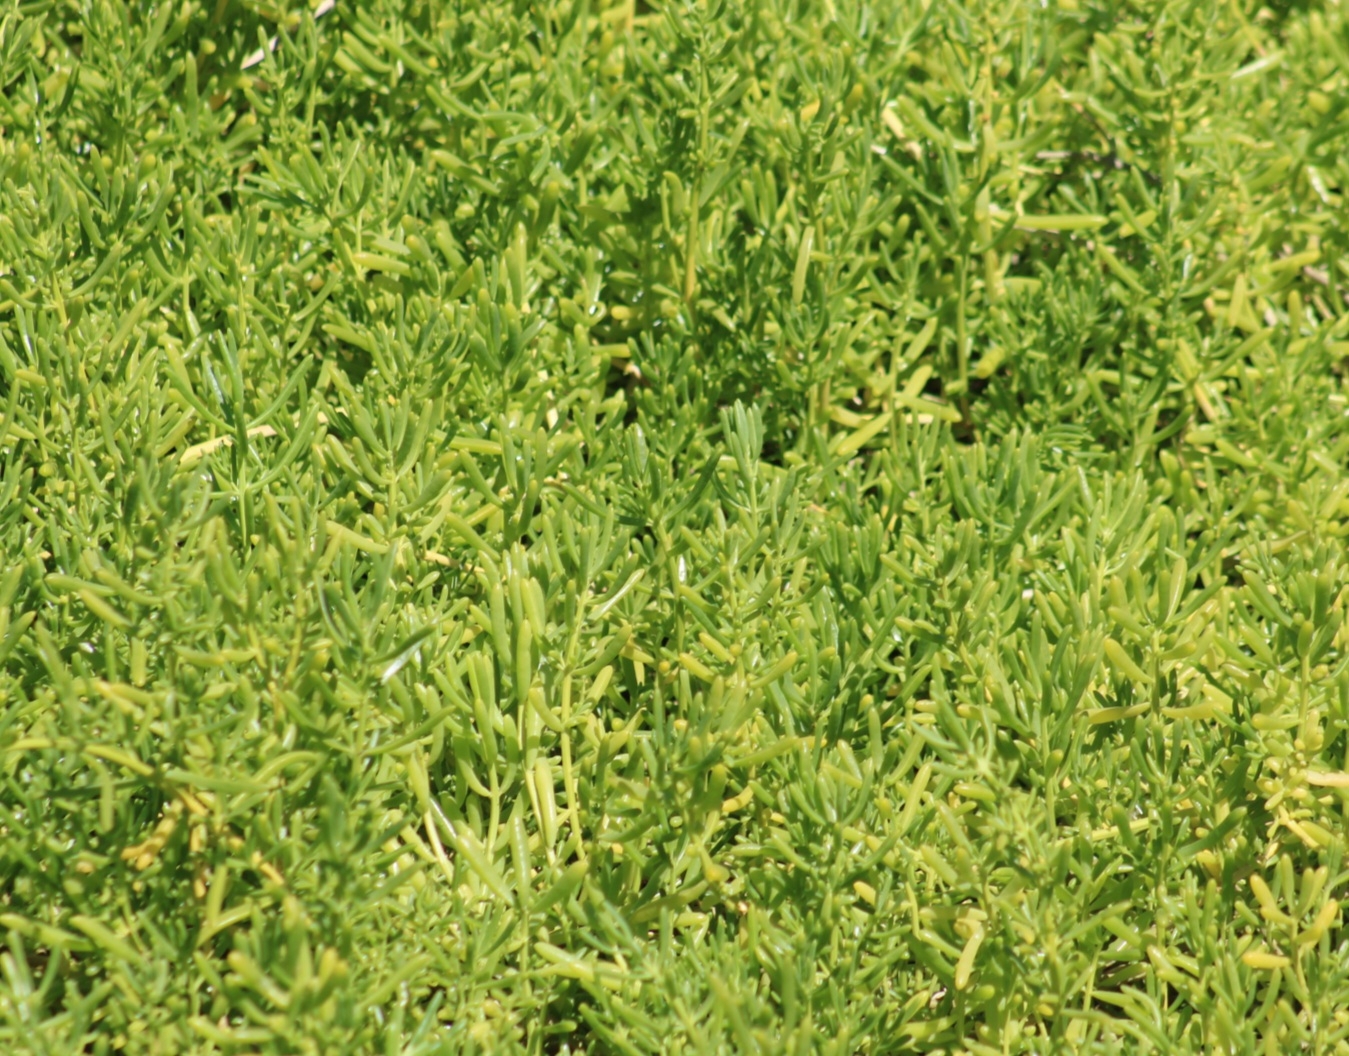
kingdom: Plantae
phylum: Tracheophyta
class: Magnoliopsida
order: Brassicales
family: Bataceae
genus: Batis
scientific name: Batis maritima
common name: Turtleweed
